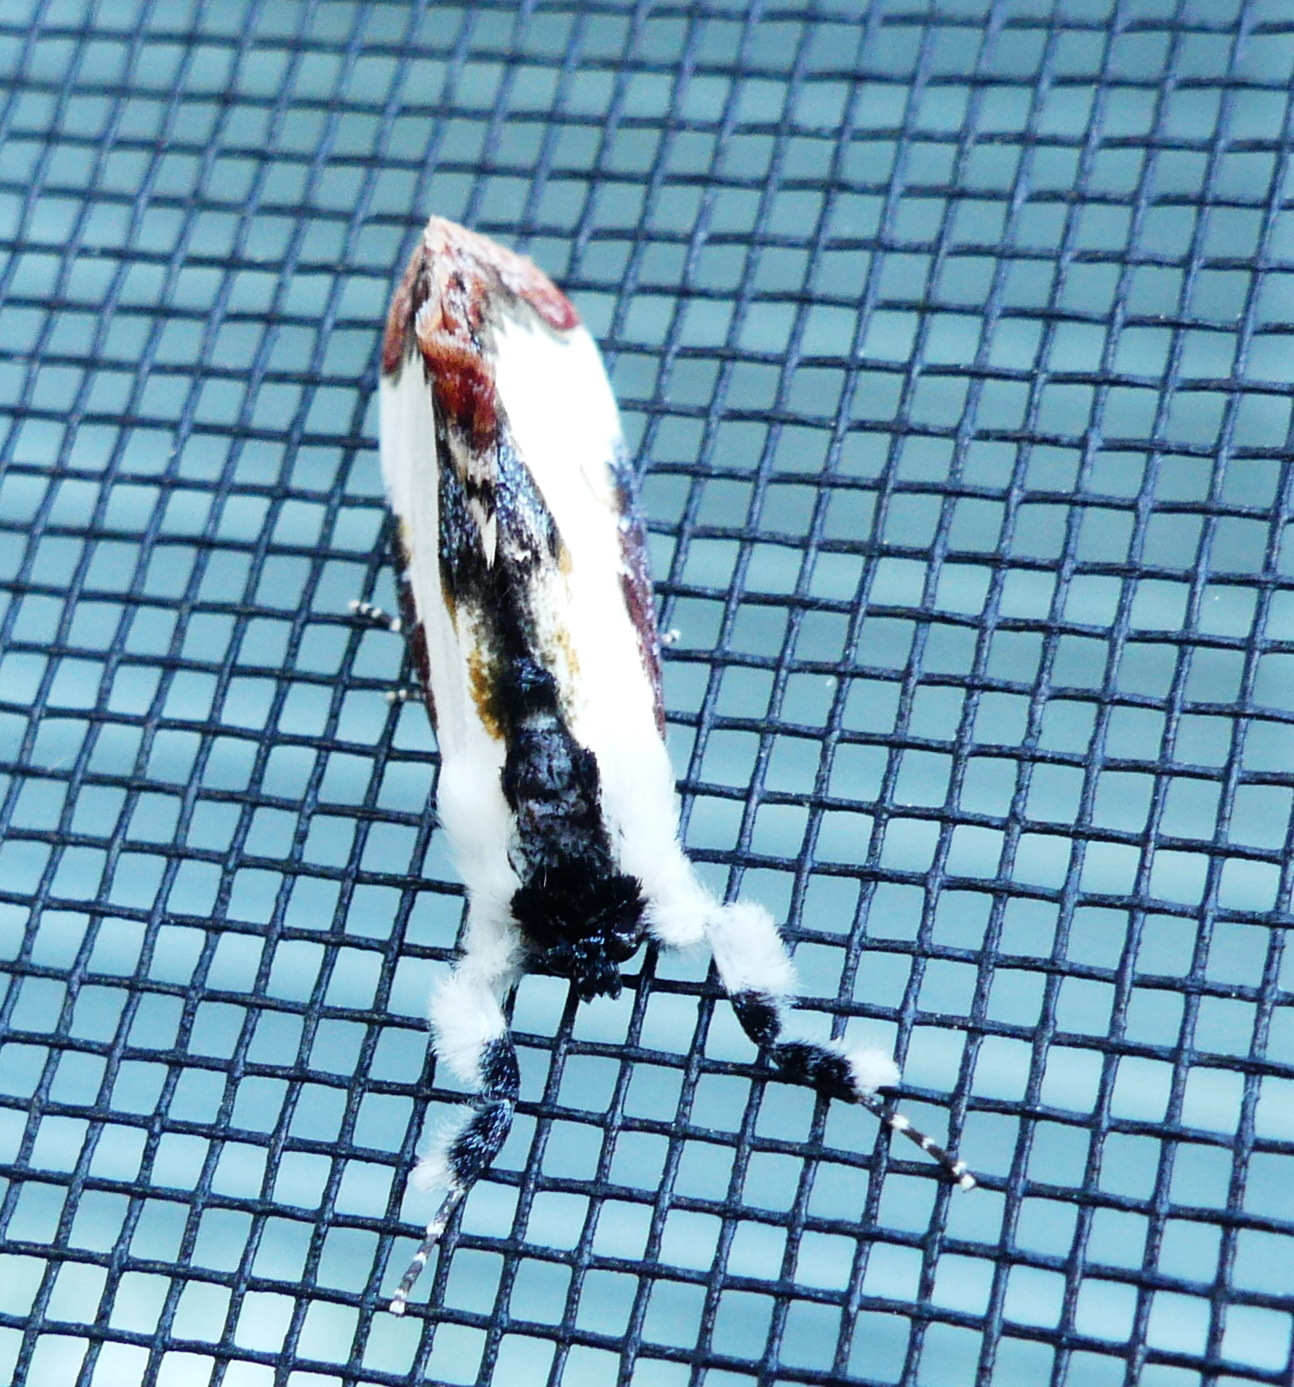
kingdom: Animalia
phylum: Arthropoda
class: Insecta
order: Lepidoptera
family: Noctuidae
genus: Eudryas
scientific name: Eudryas unio
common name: Pearly wood-nymph
